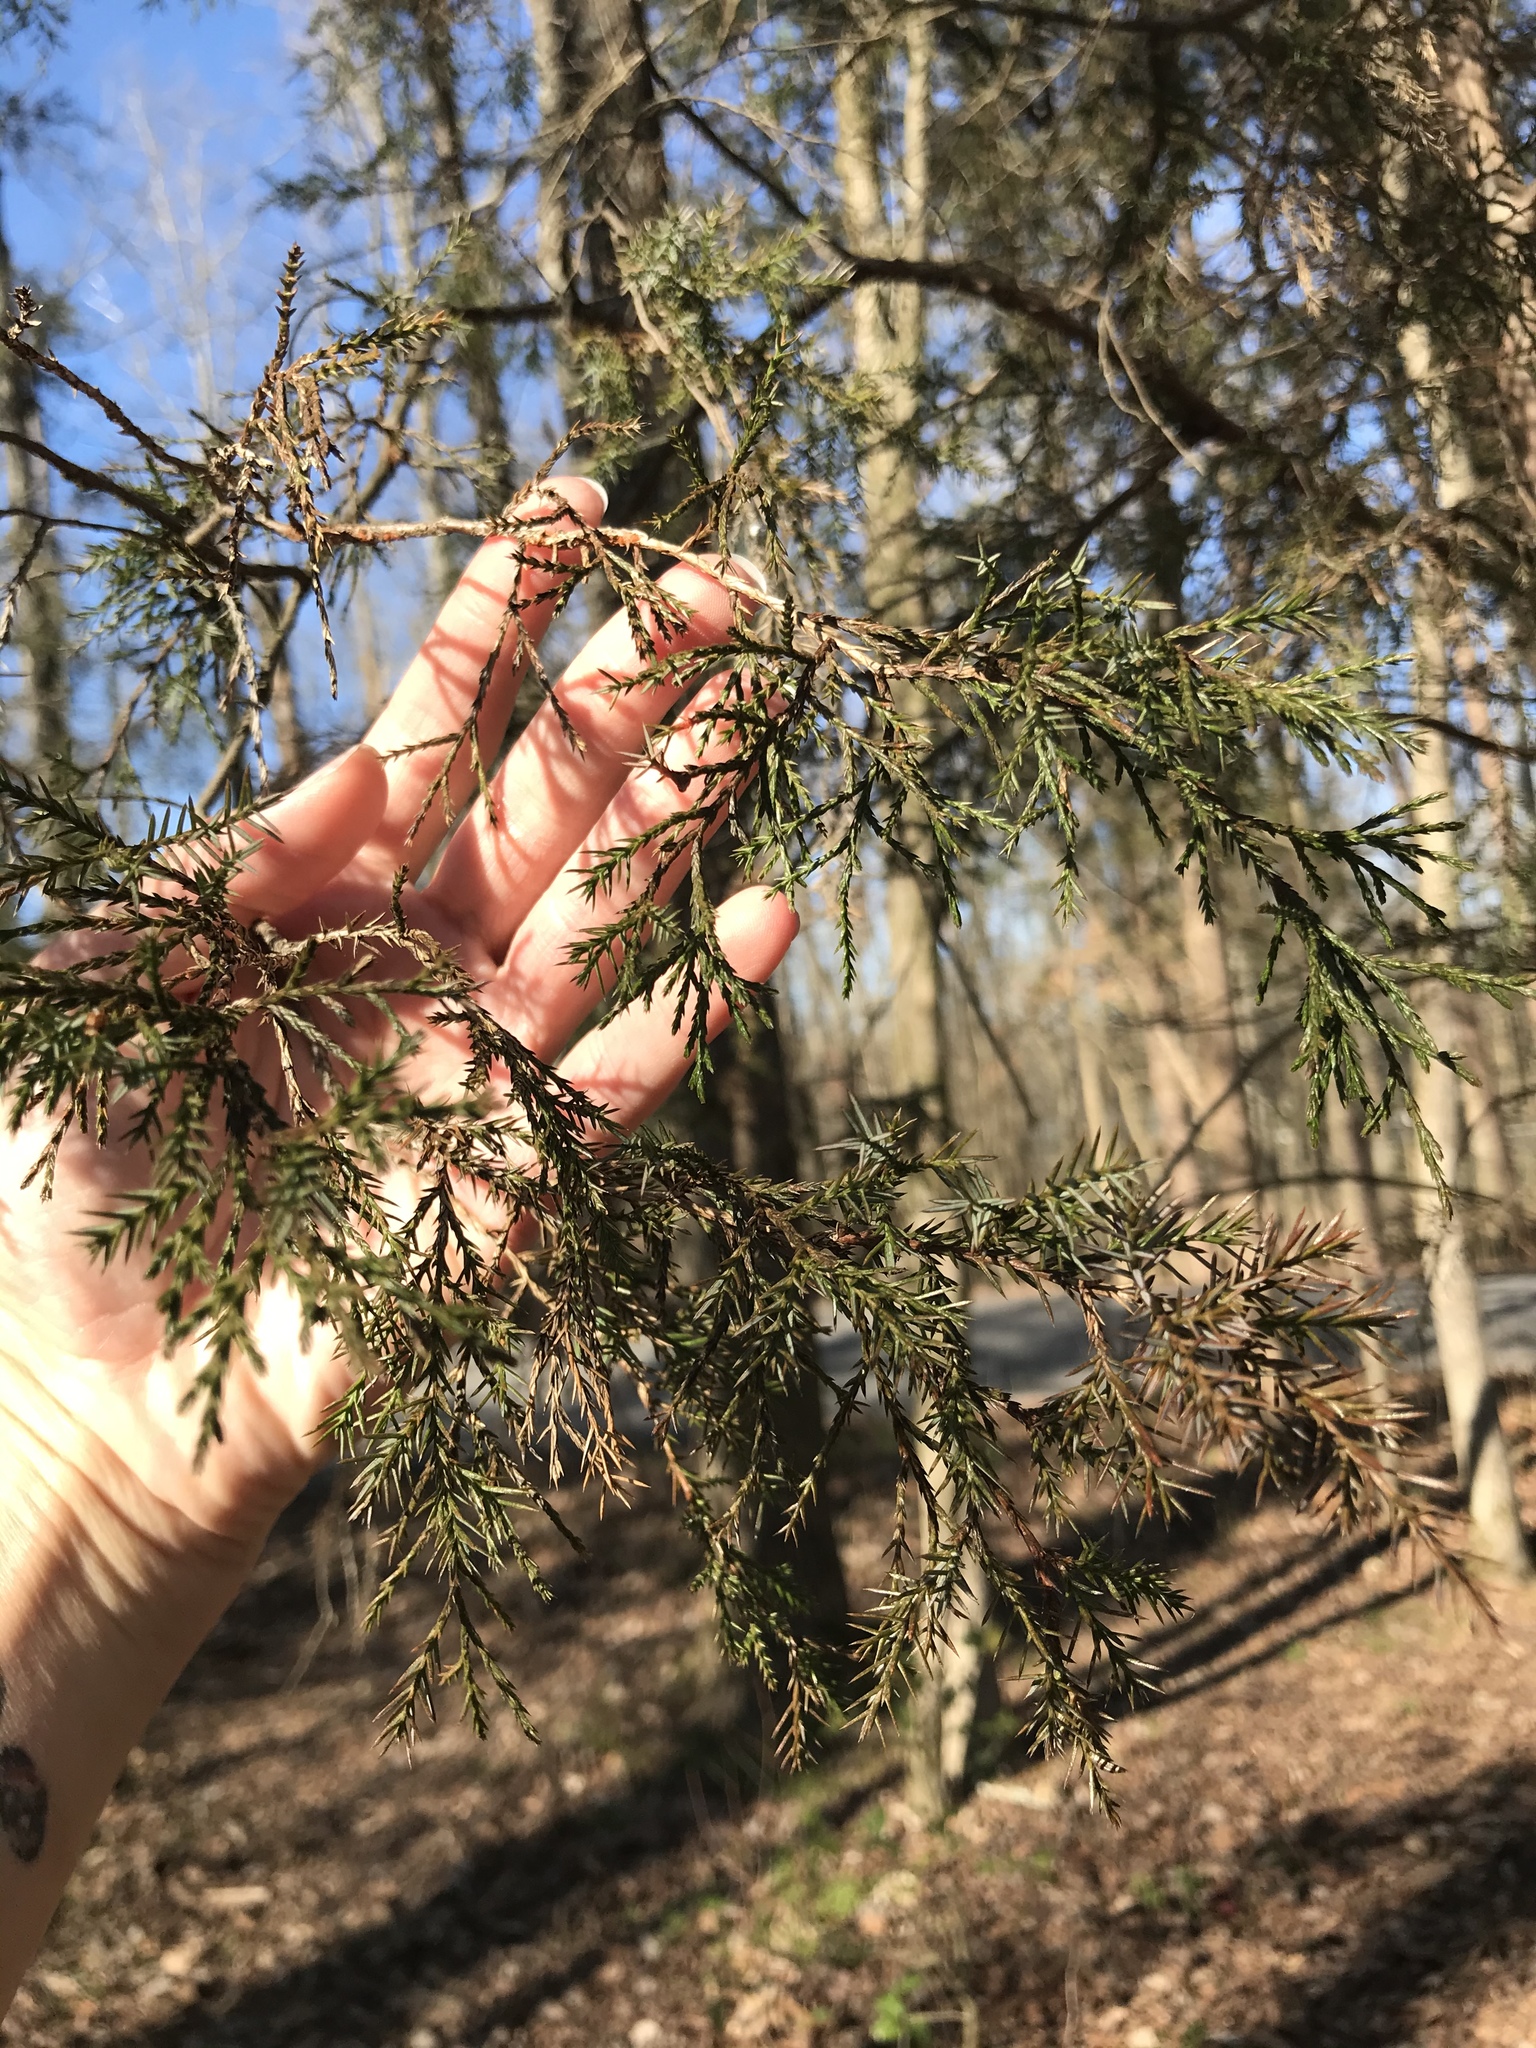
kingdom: Plantae
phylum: Tracheophyta
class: Pinopsida
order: Pinales
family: Cupressaceae
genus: Juniperus
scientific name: Juniperus virginiana
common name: Red juniper
